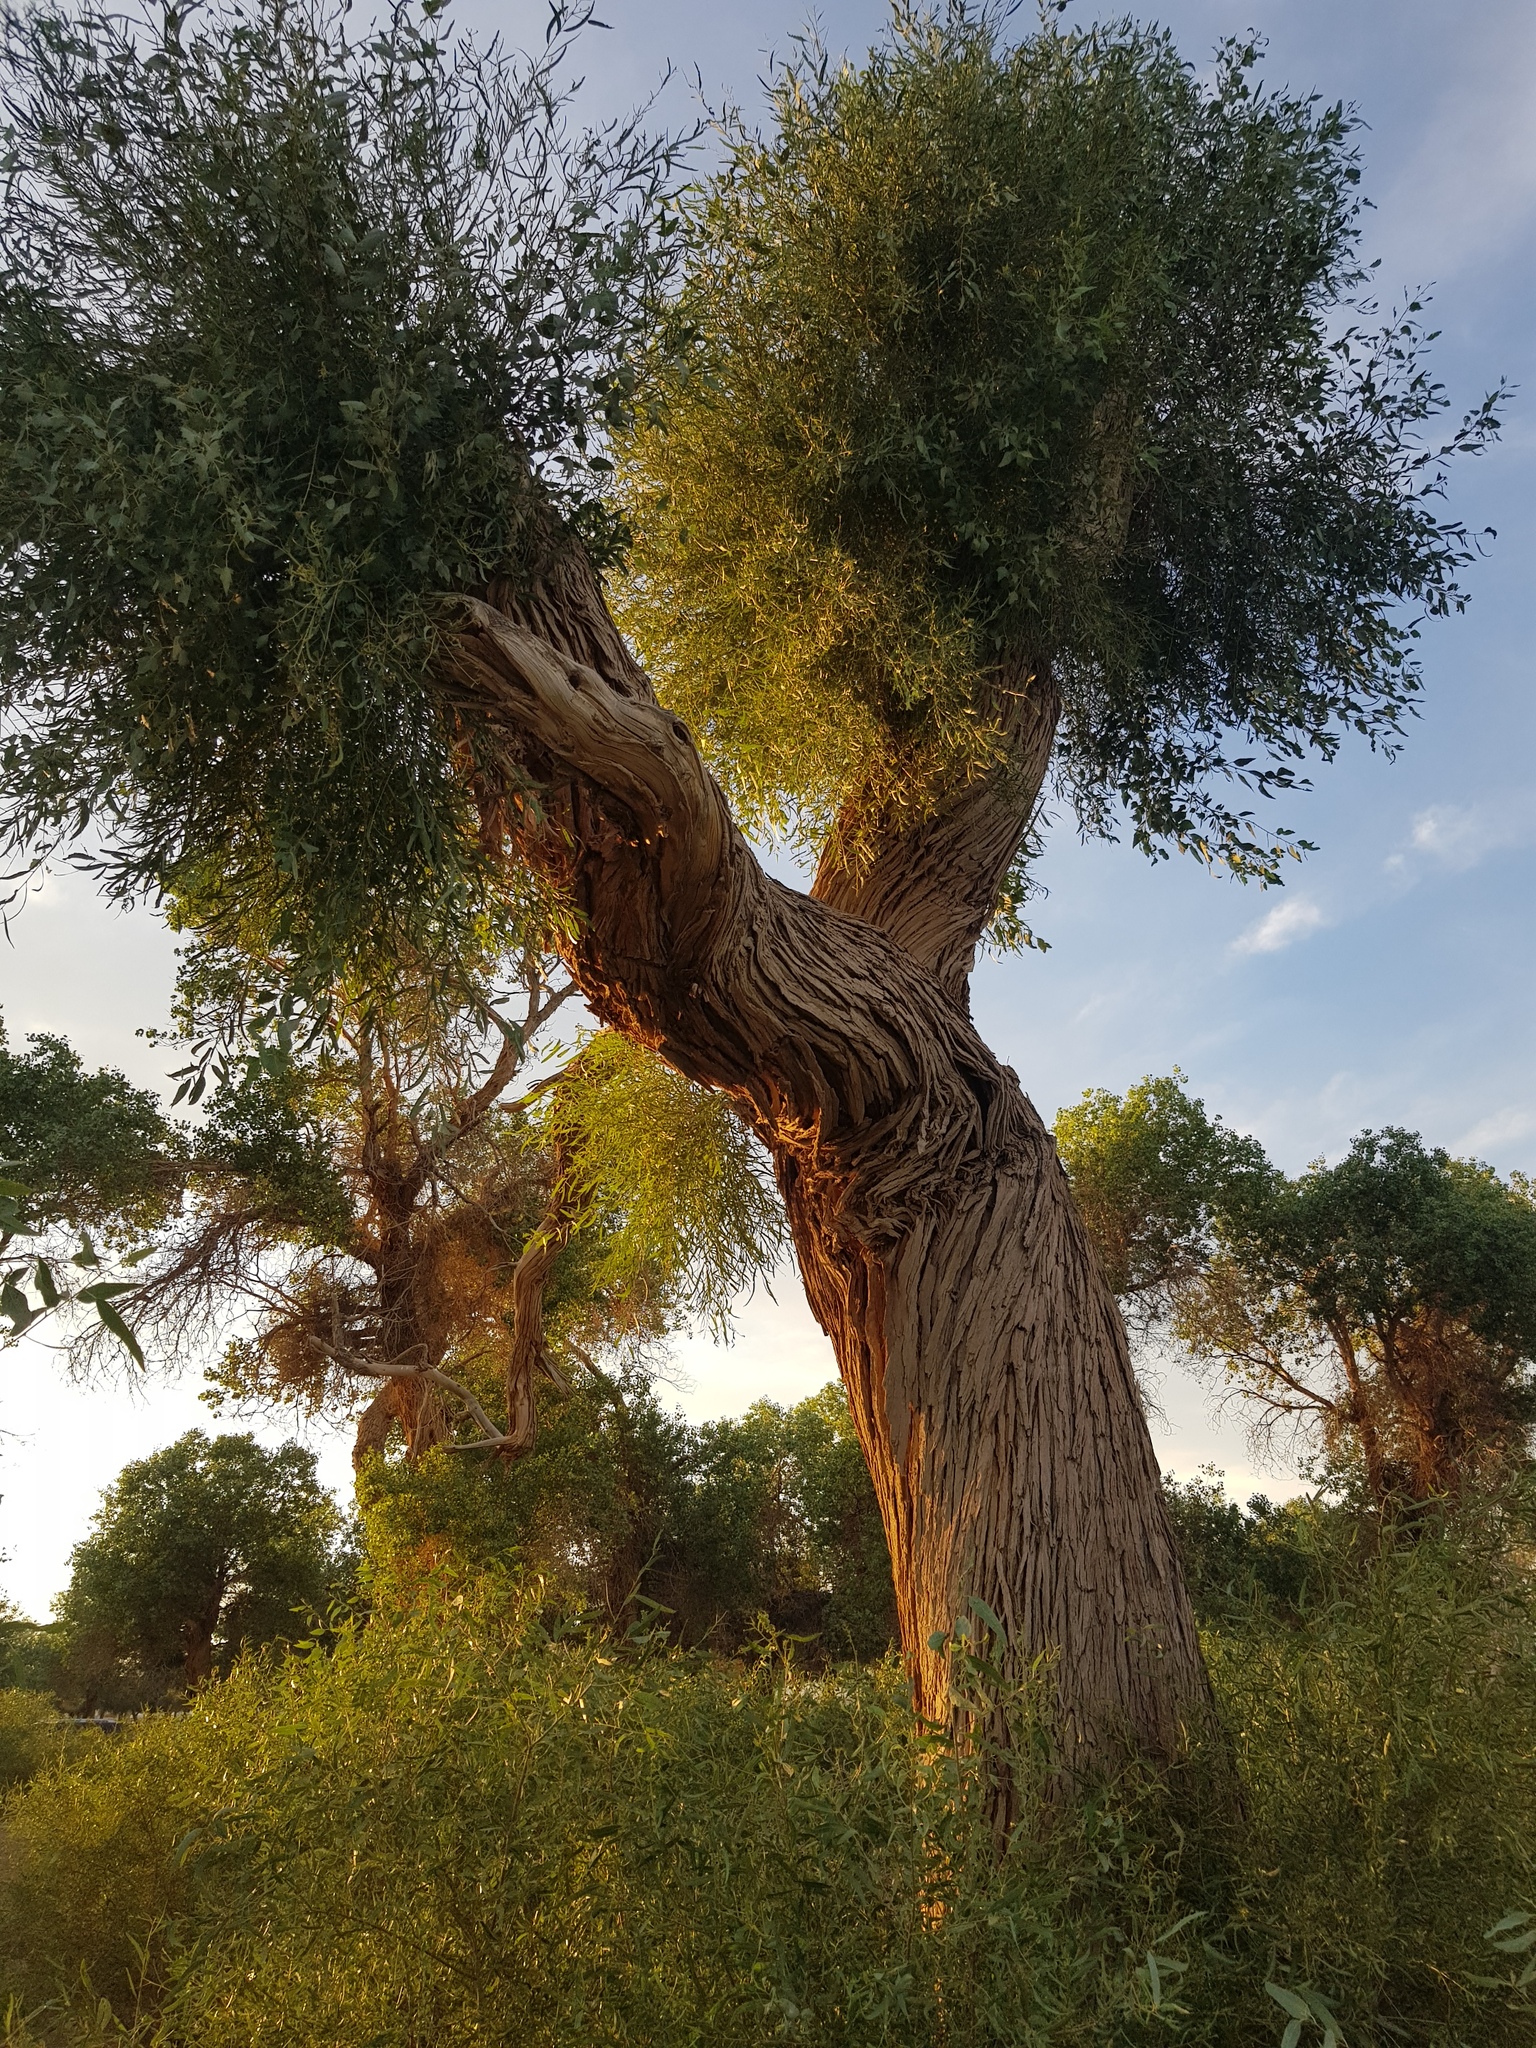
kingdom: Plantae
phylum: Tracheophyta
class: Magnoliopsida
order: Malpighiales
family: Salicaceae
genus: Populus
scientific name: Populus euphratica
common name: Euphrates poplar
